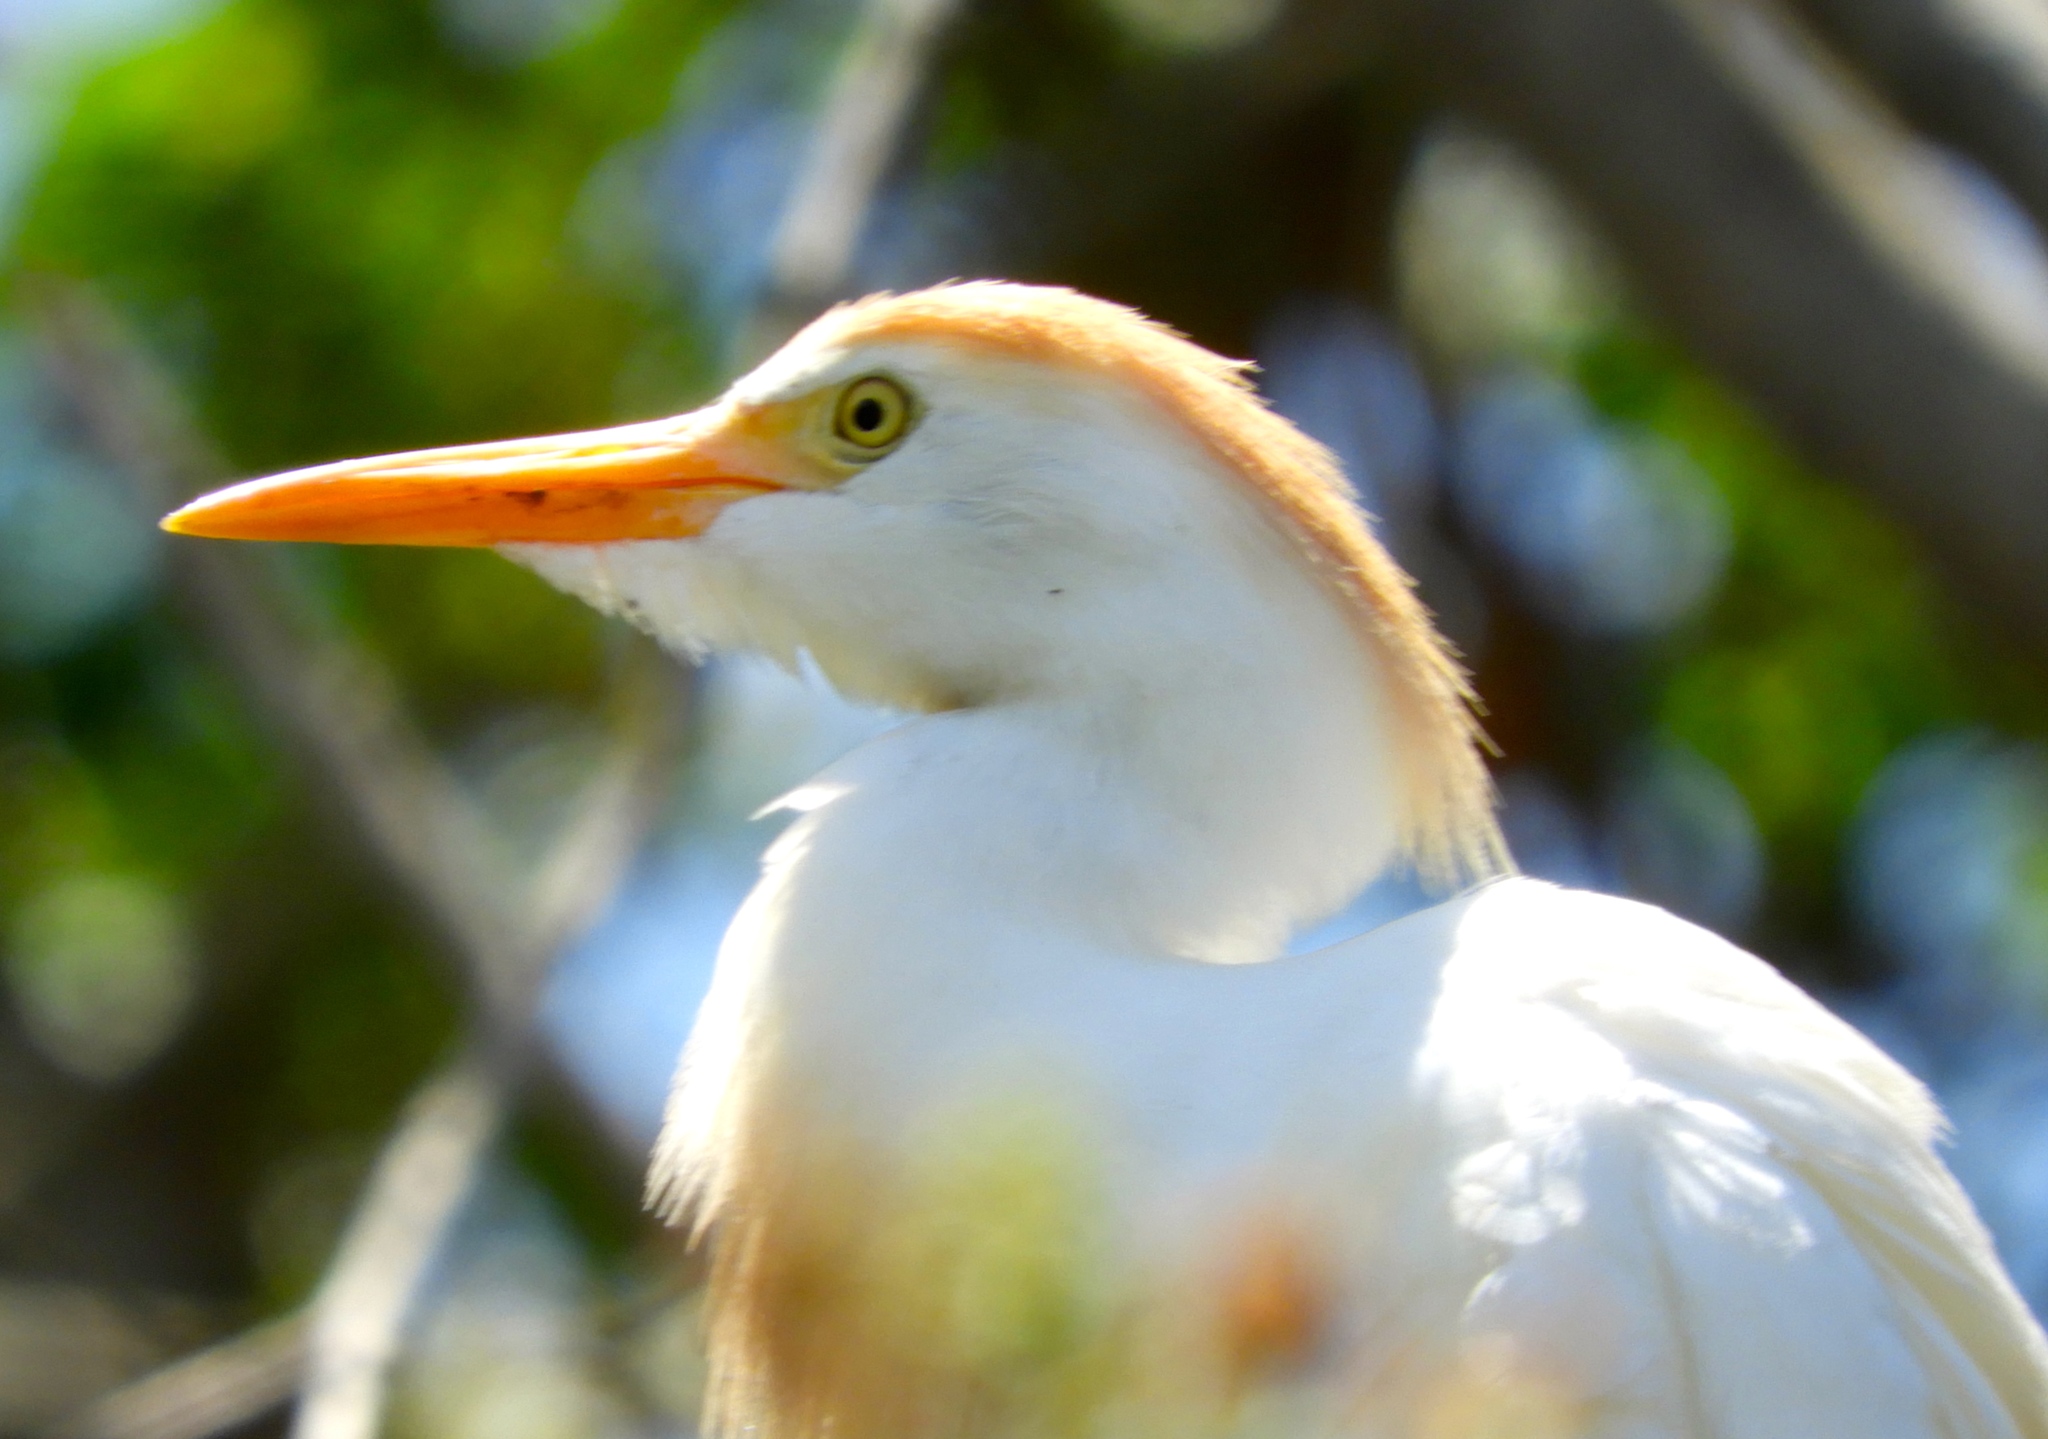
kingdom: Animalia
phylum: Chordata
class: Aves
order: Pelecaniformes
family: Ardeidae
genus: Bubulcus
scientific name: Bubulcus ibis
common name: Cattle egret
